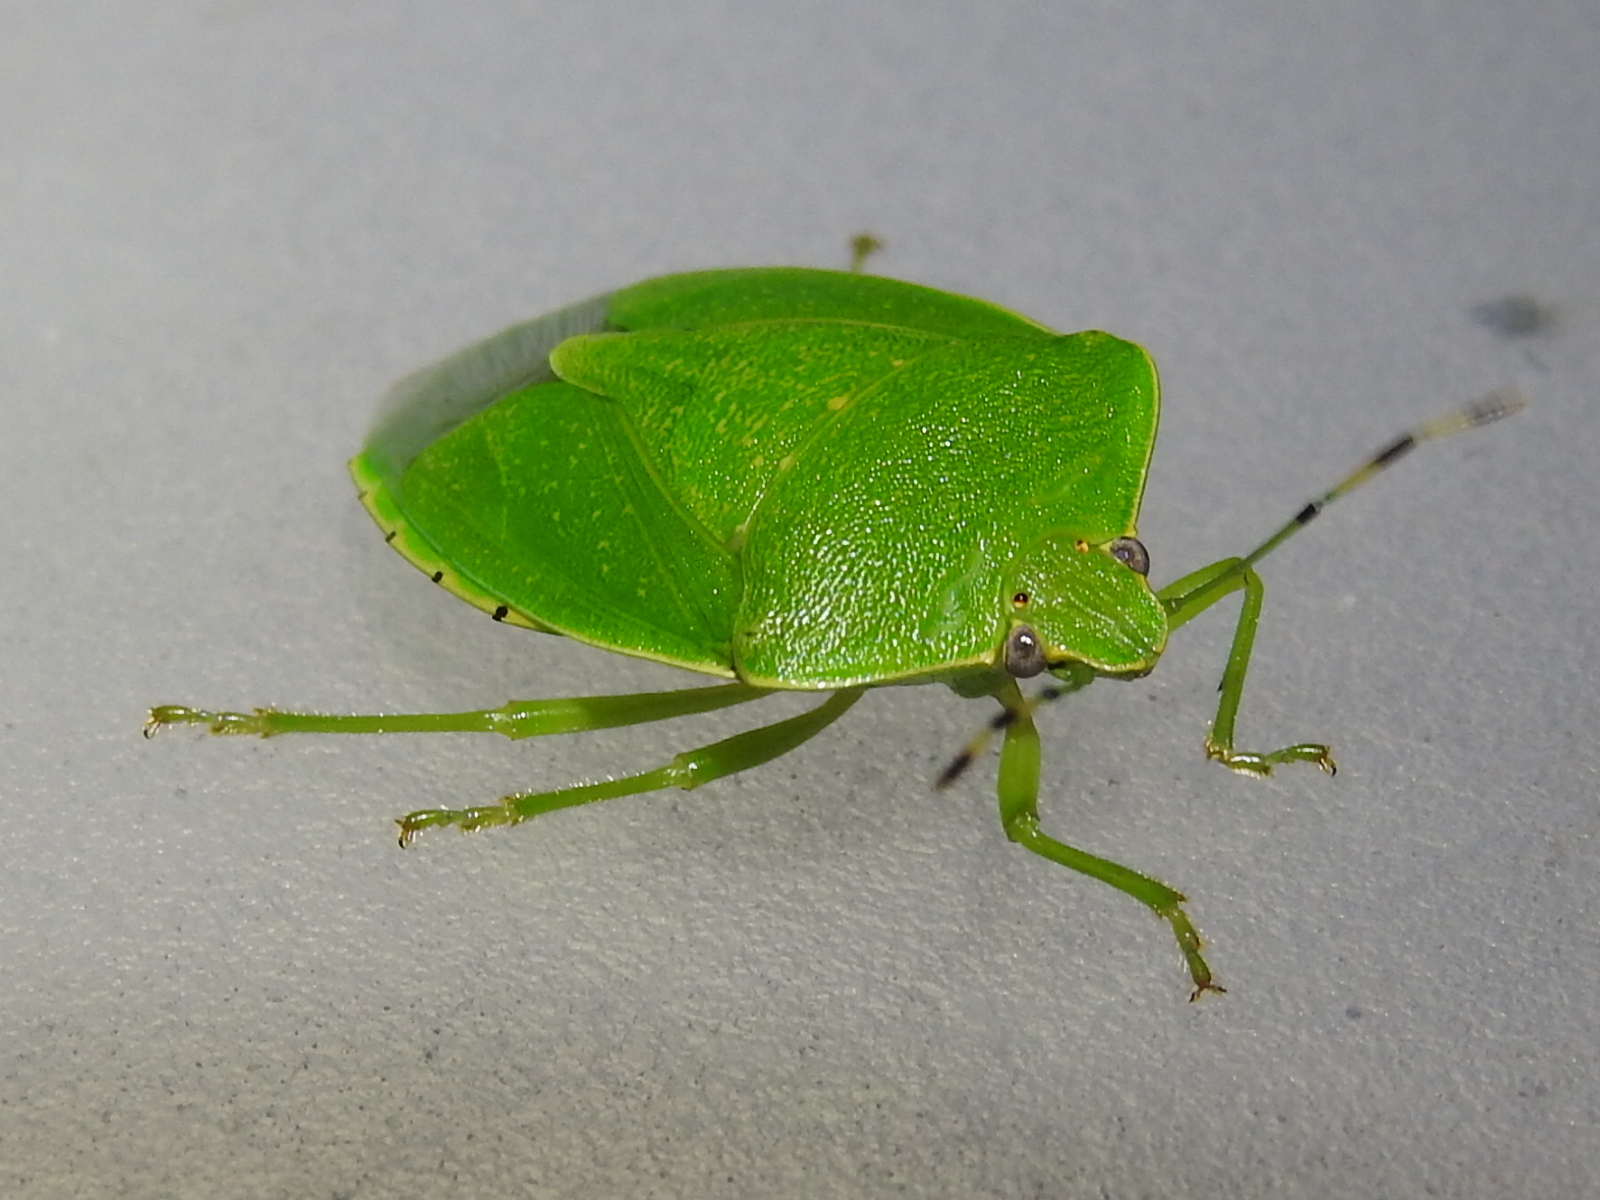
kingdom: Animalia
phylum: Arthropoda
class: Insecta
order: Hemiptera
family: Pentatomidae
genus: Chinavia
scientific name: Chinavia hilaris
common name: Green stink bug
